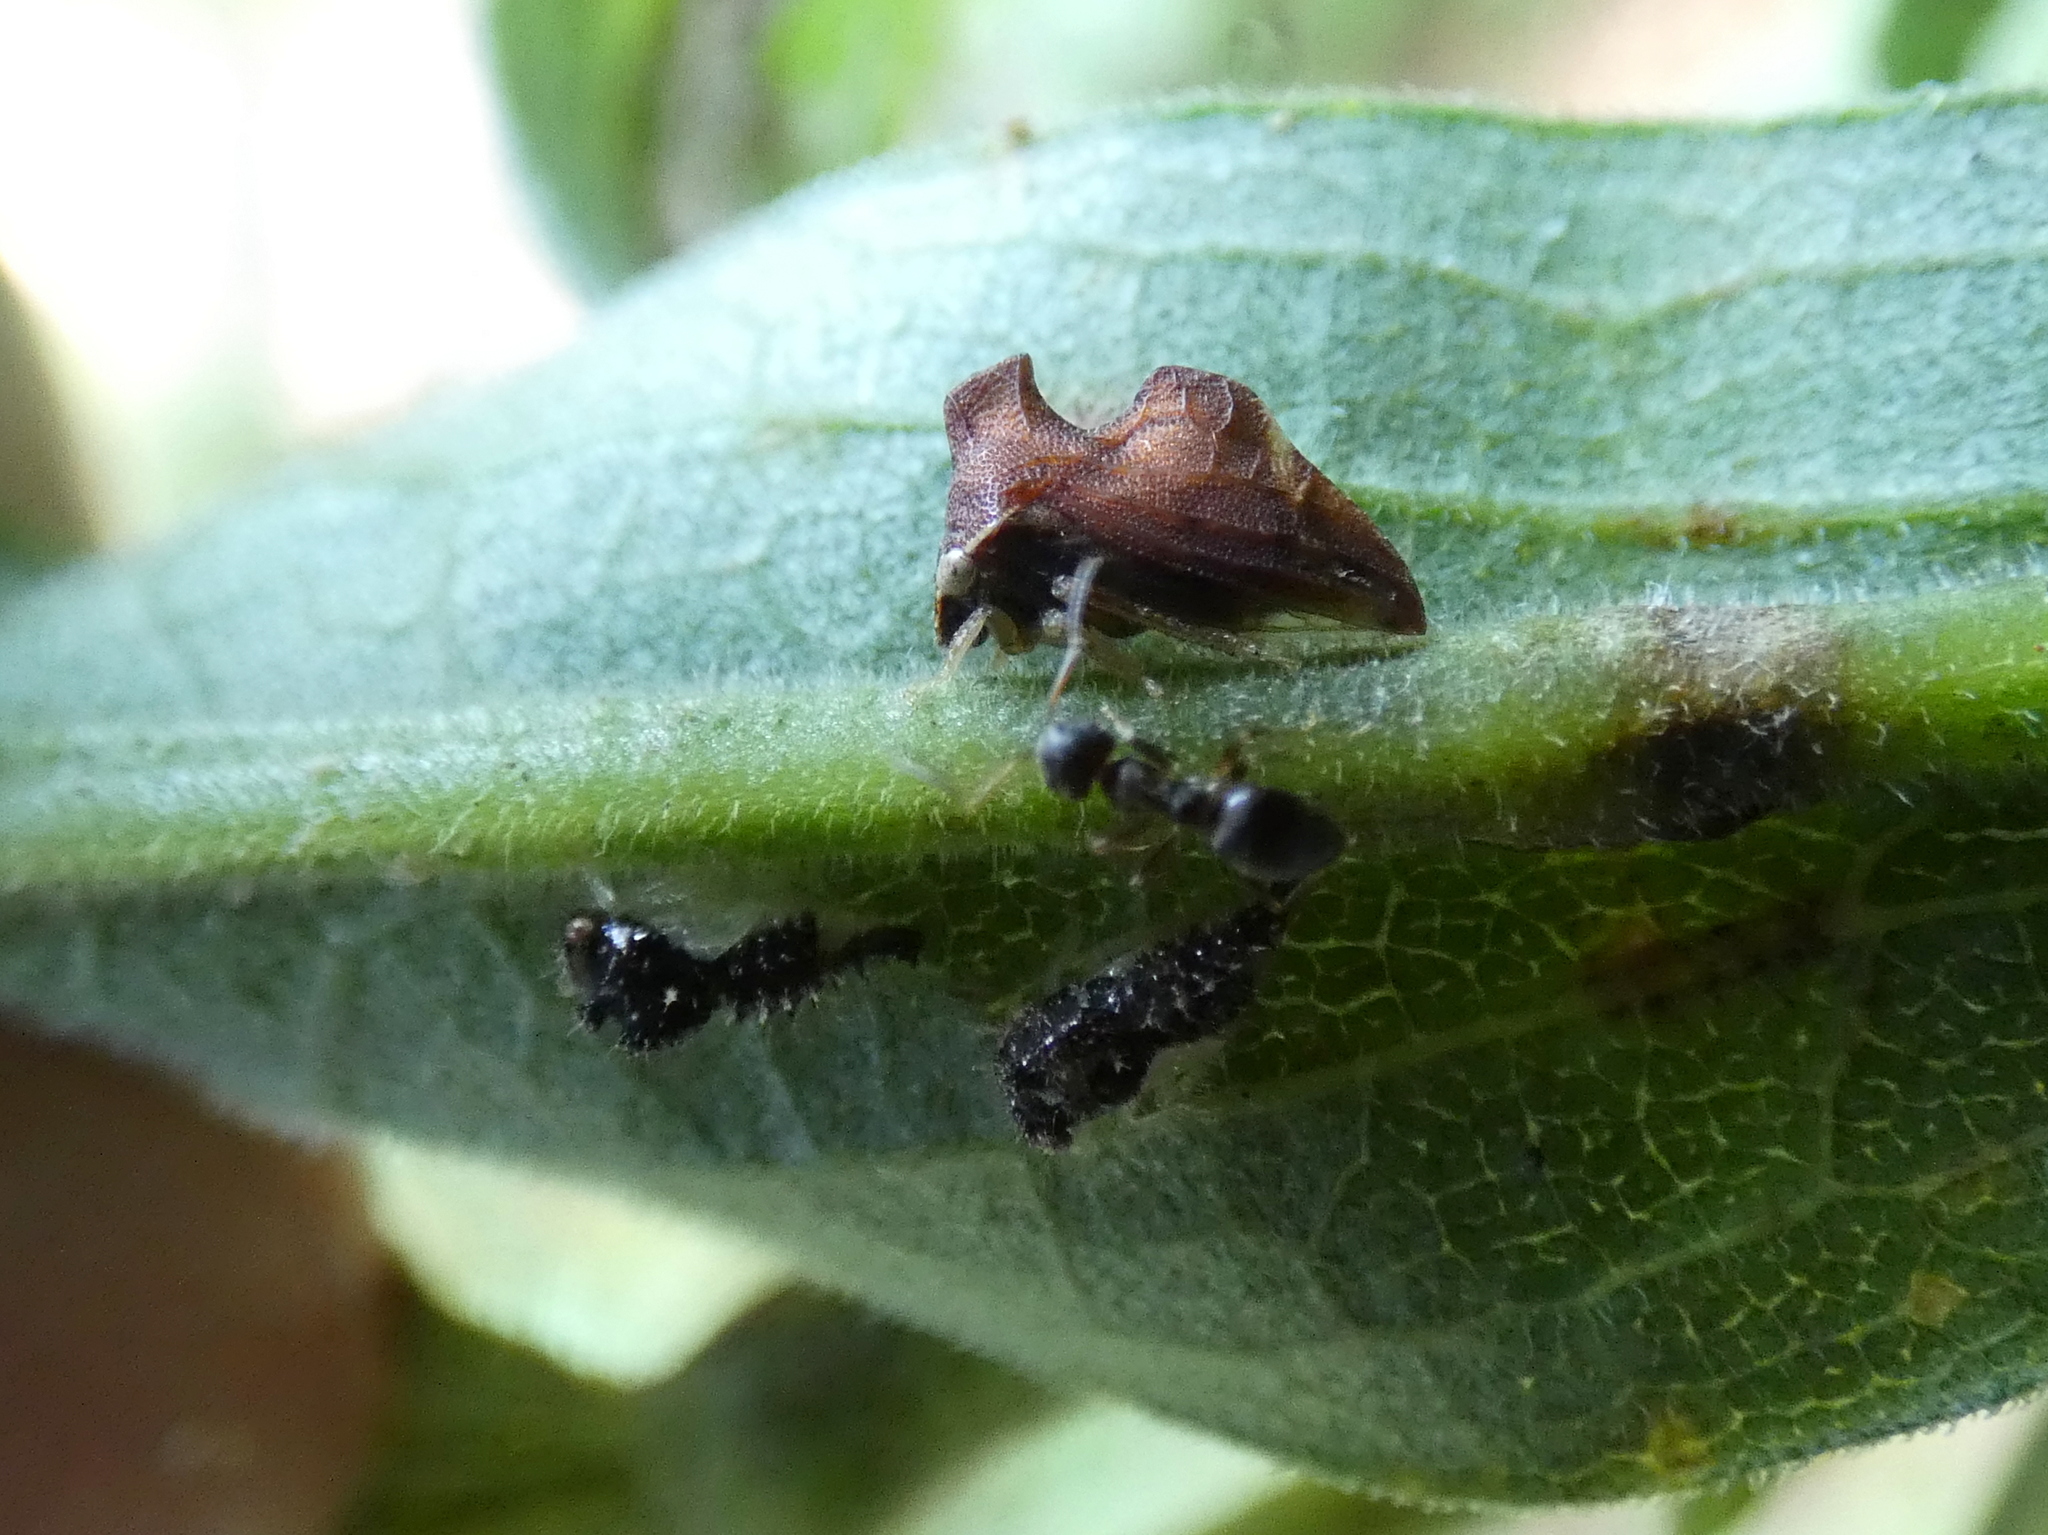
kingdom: Animalia
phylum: Arthropoda
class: Insecta
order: Hemiptera
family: Membracidae
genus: Entylia
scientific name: Entylia carinata
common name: Keeled treehopper
